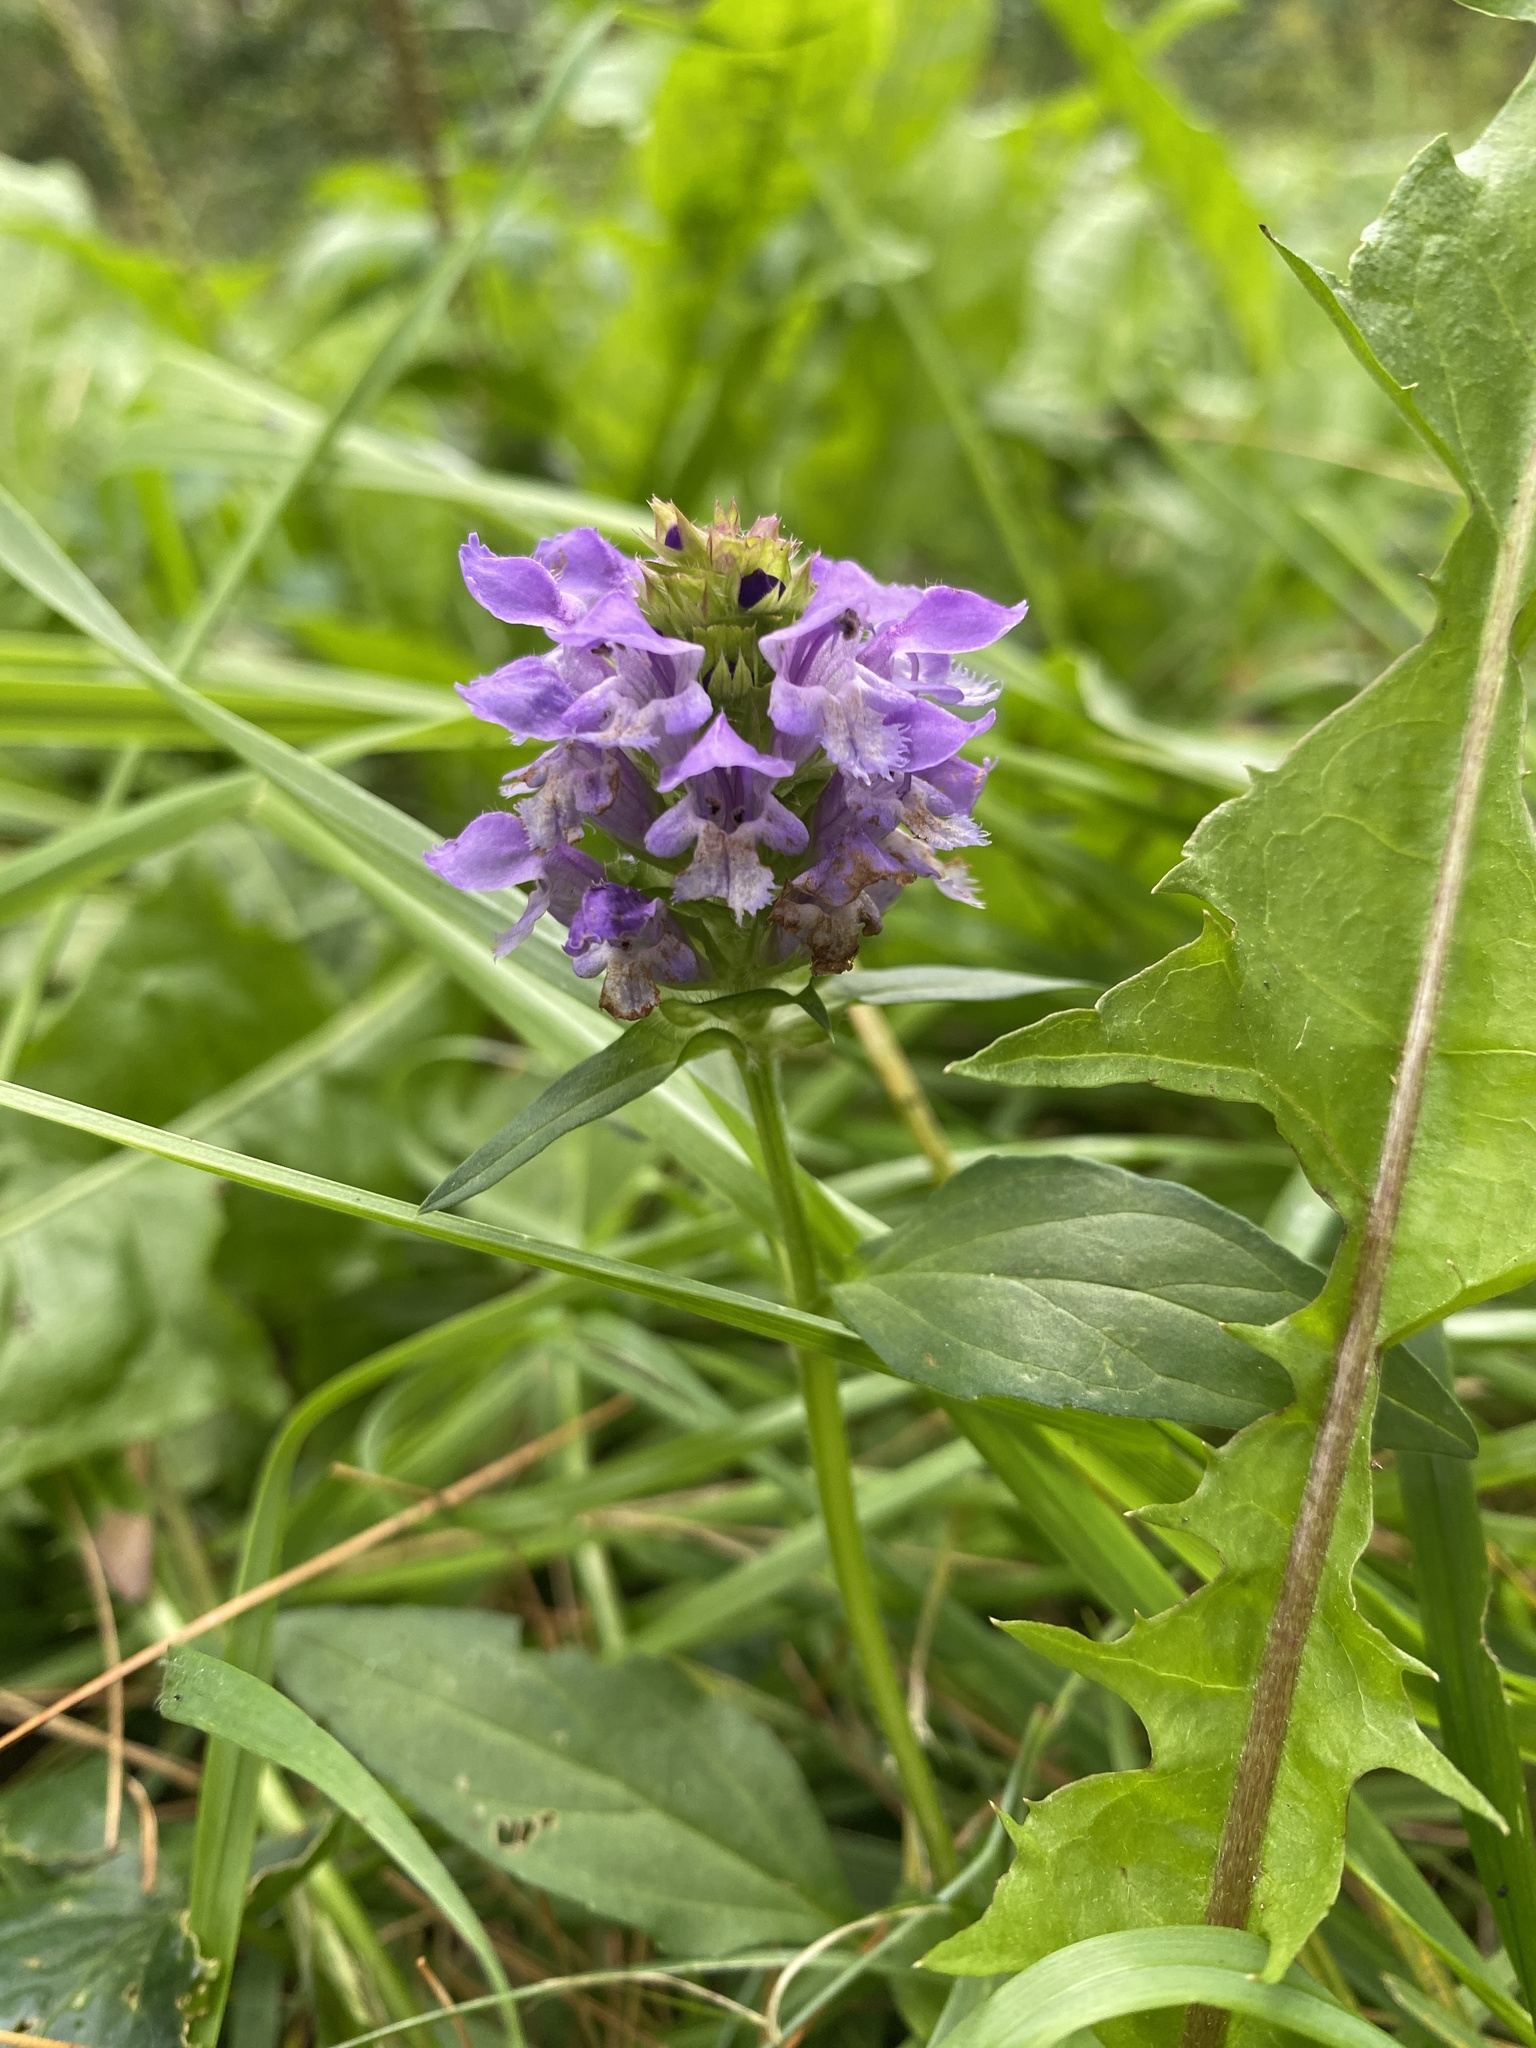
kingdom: Plantae
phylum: Tracheophyta
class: Magnoliopsida
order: Lamiales
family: Lamiaceae
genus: Prunella
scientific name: Prunella vulgaris
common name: Heal-all
